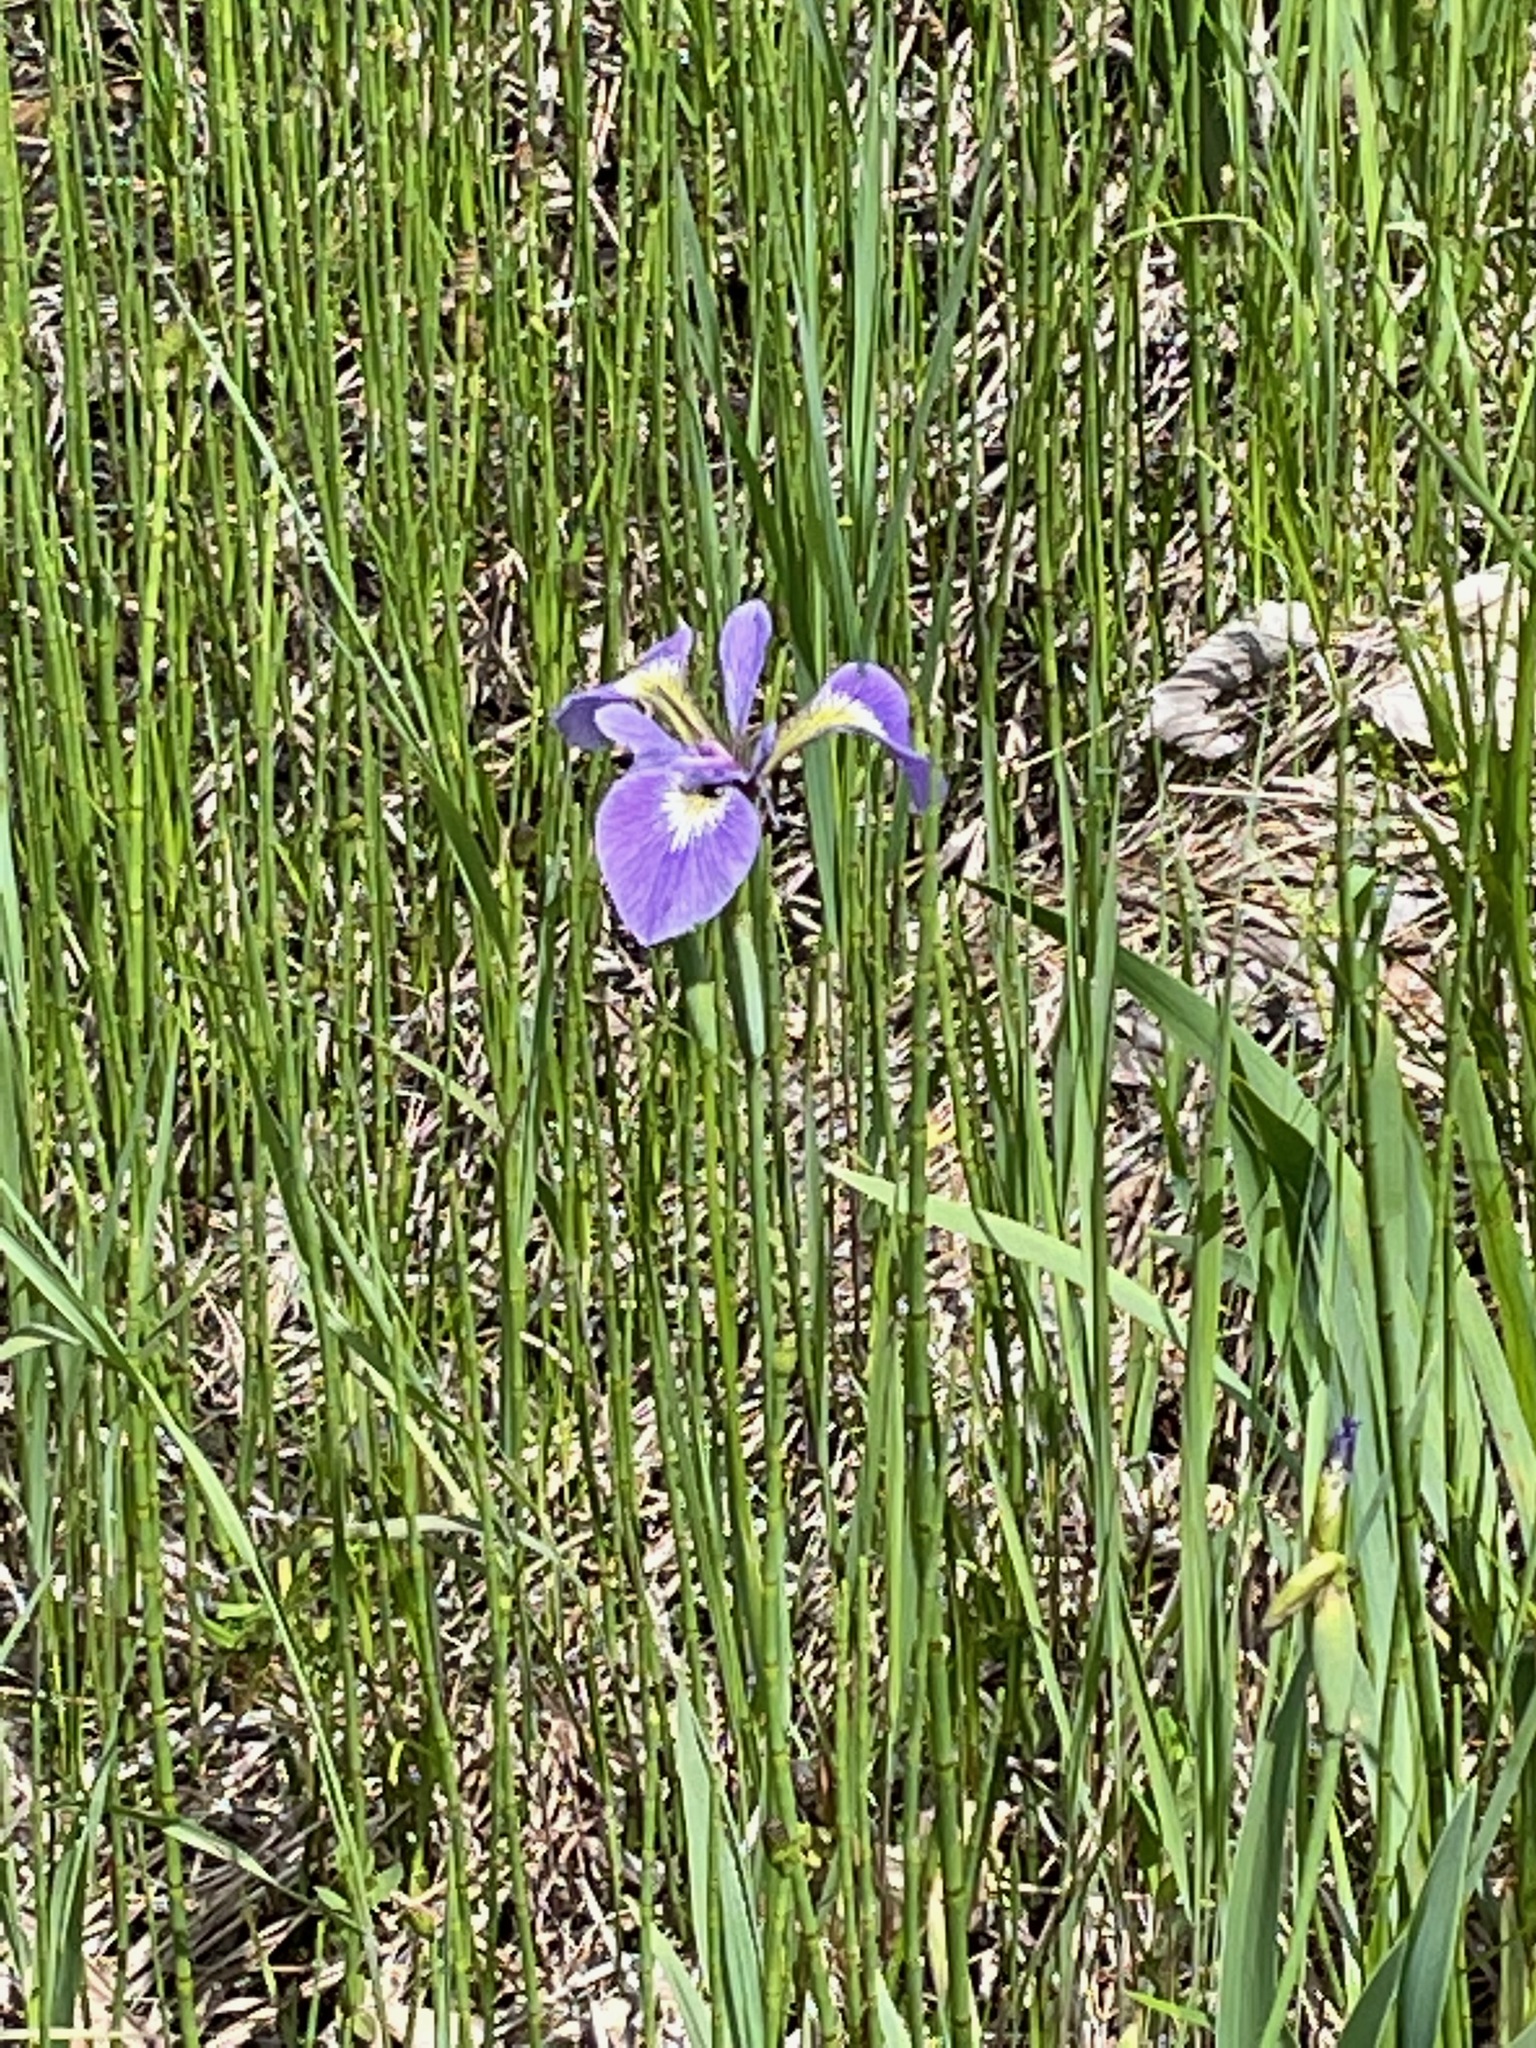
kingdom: Plantae
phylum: Tracheophyta
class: Liliopsida
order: Asparagales
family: Iridaceae
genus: Iris
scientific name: Iris versicolor
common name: Purple iris
